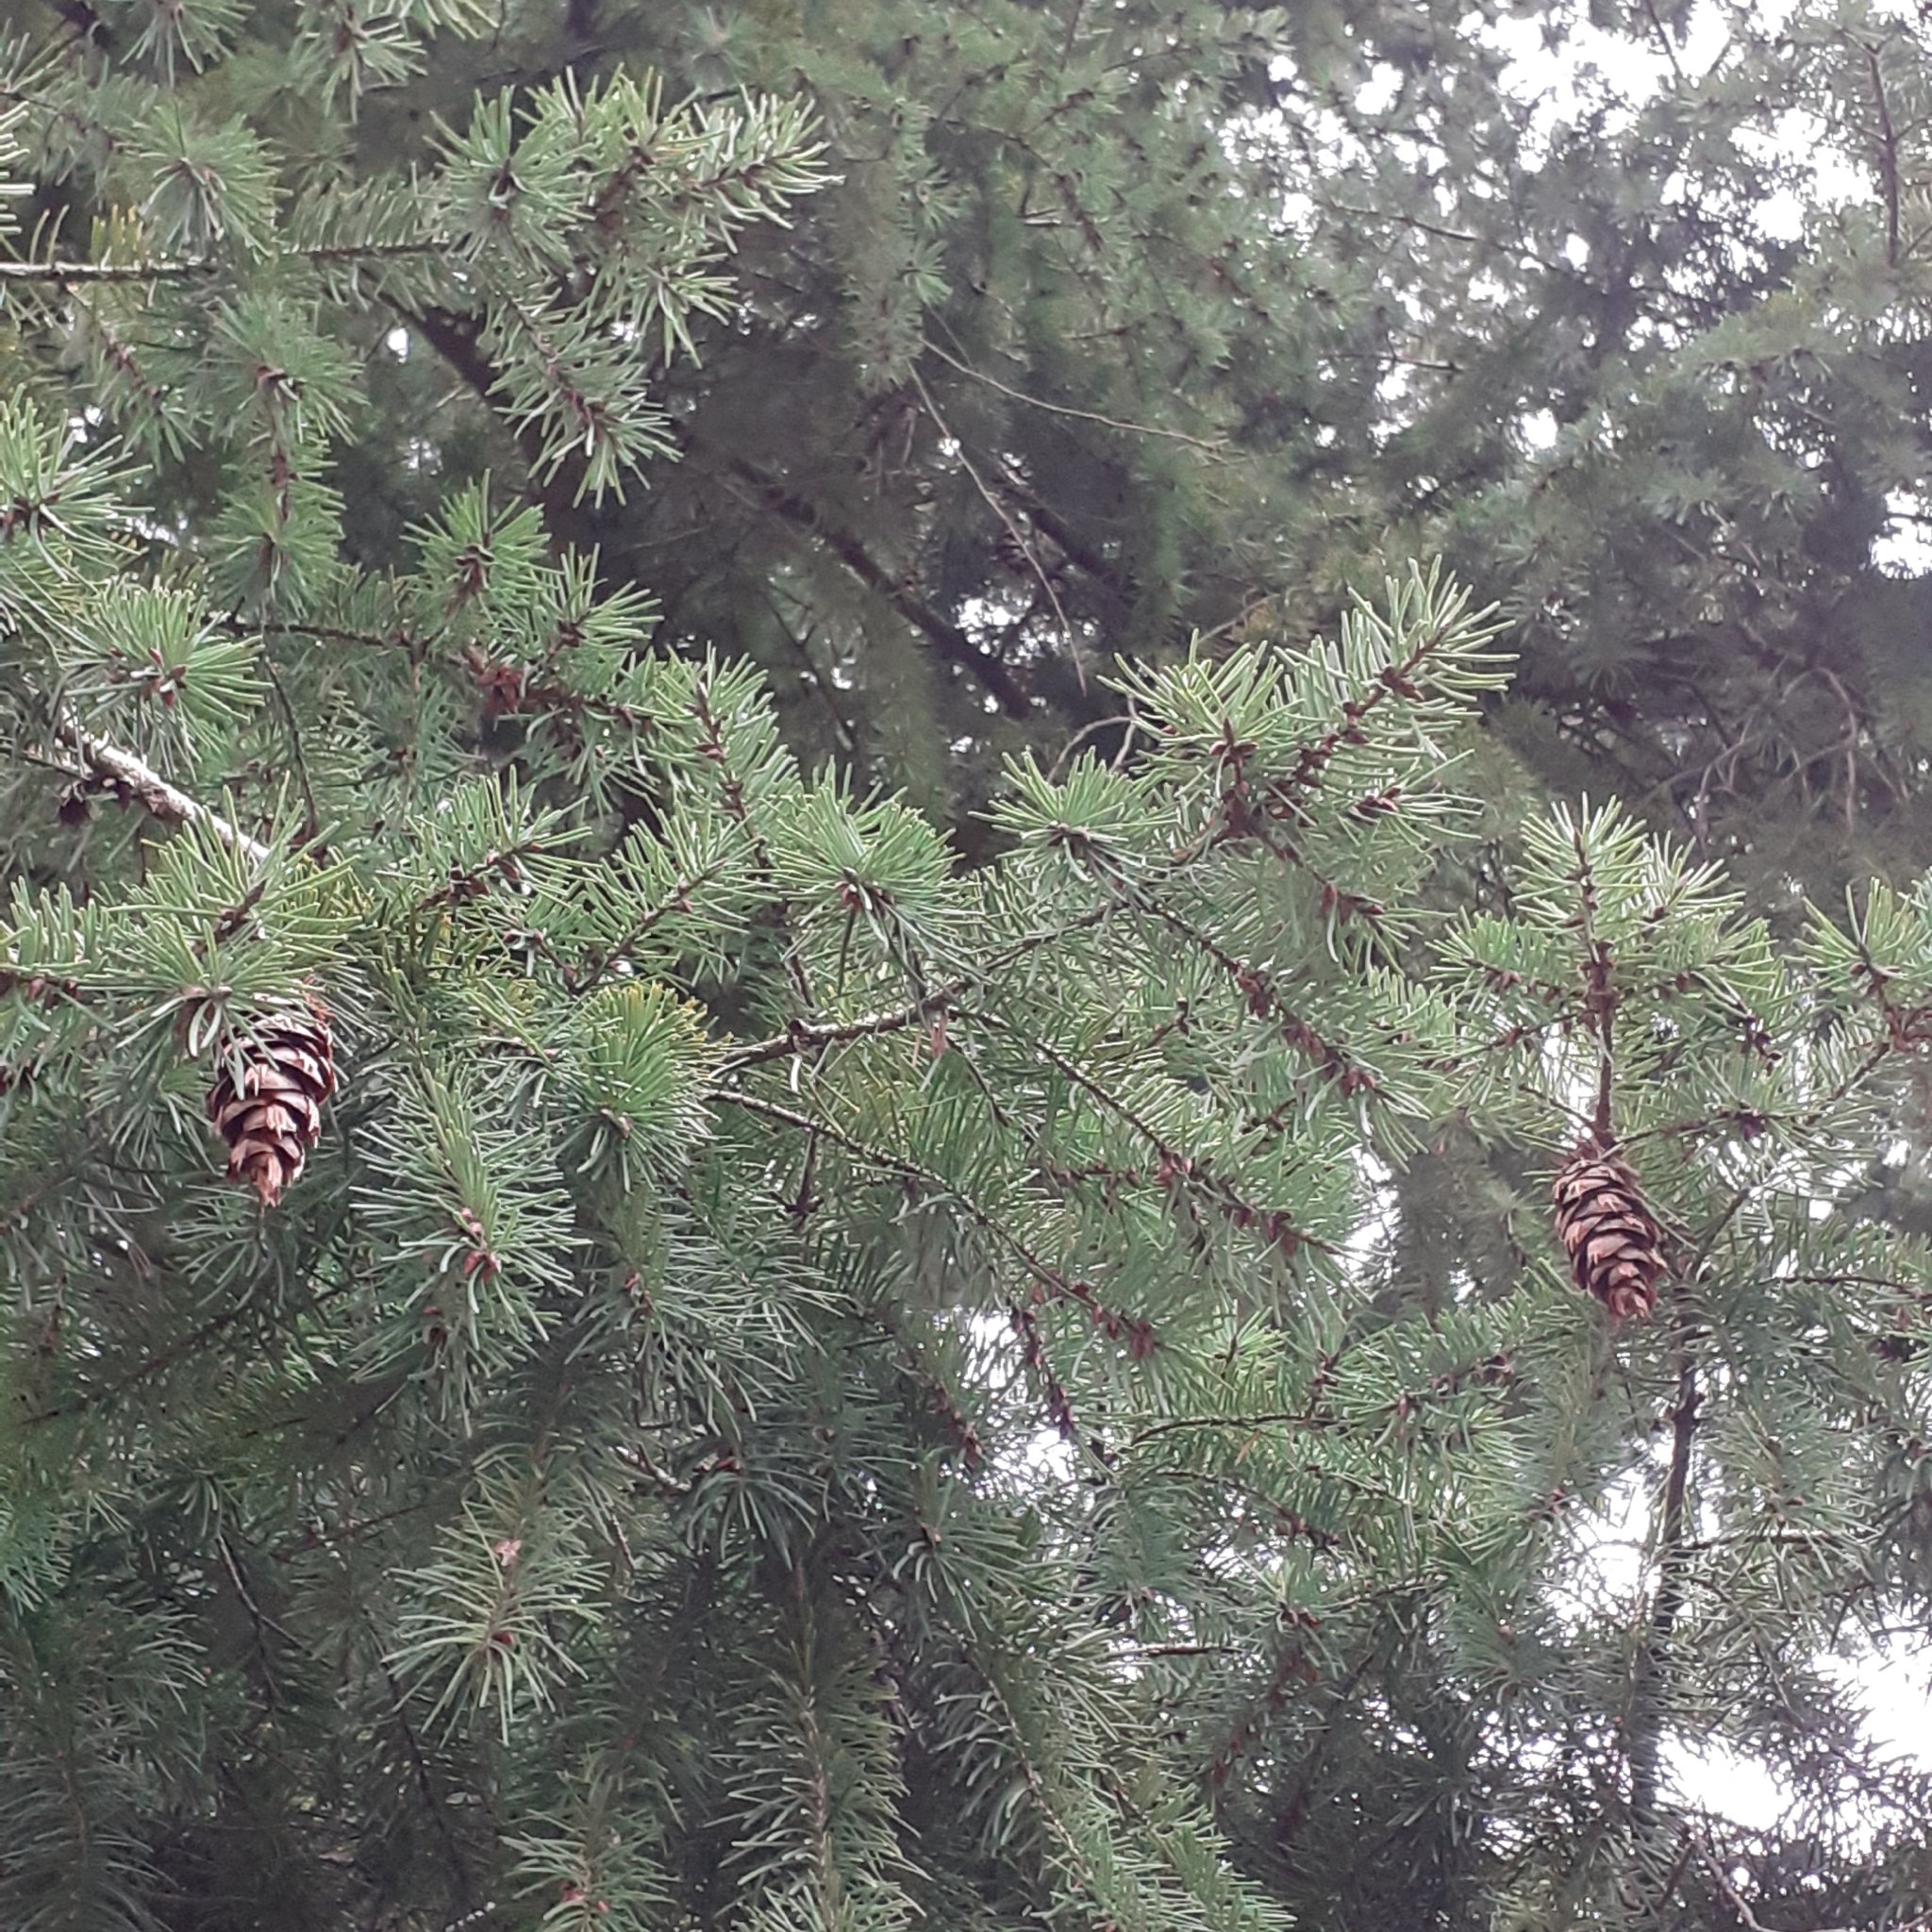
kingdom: Plantae
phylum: Tracheophyta
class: Pinopsida
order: Pinales
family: Pinaceae
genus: Pseudotsuga
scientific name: Pseudotsuga menziesii
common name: Douglas fir
